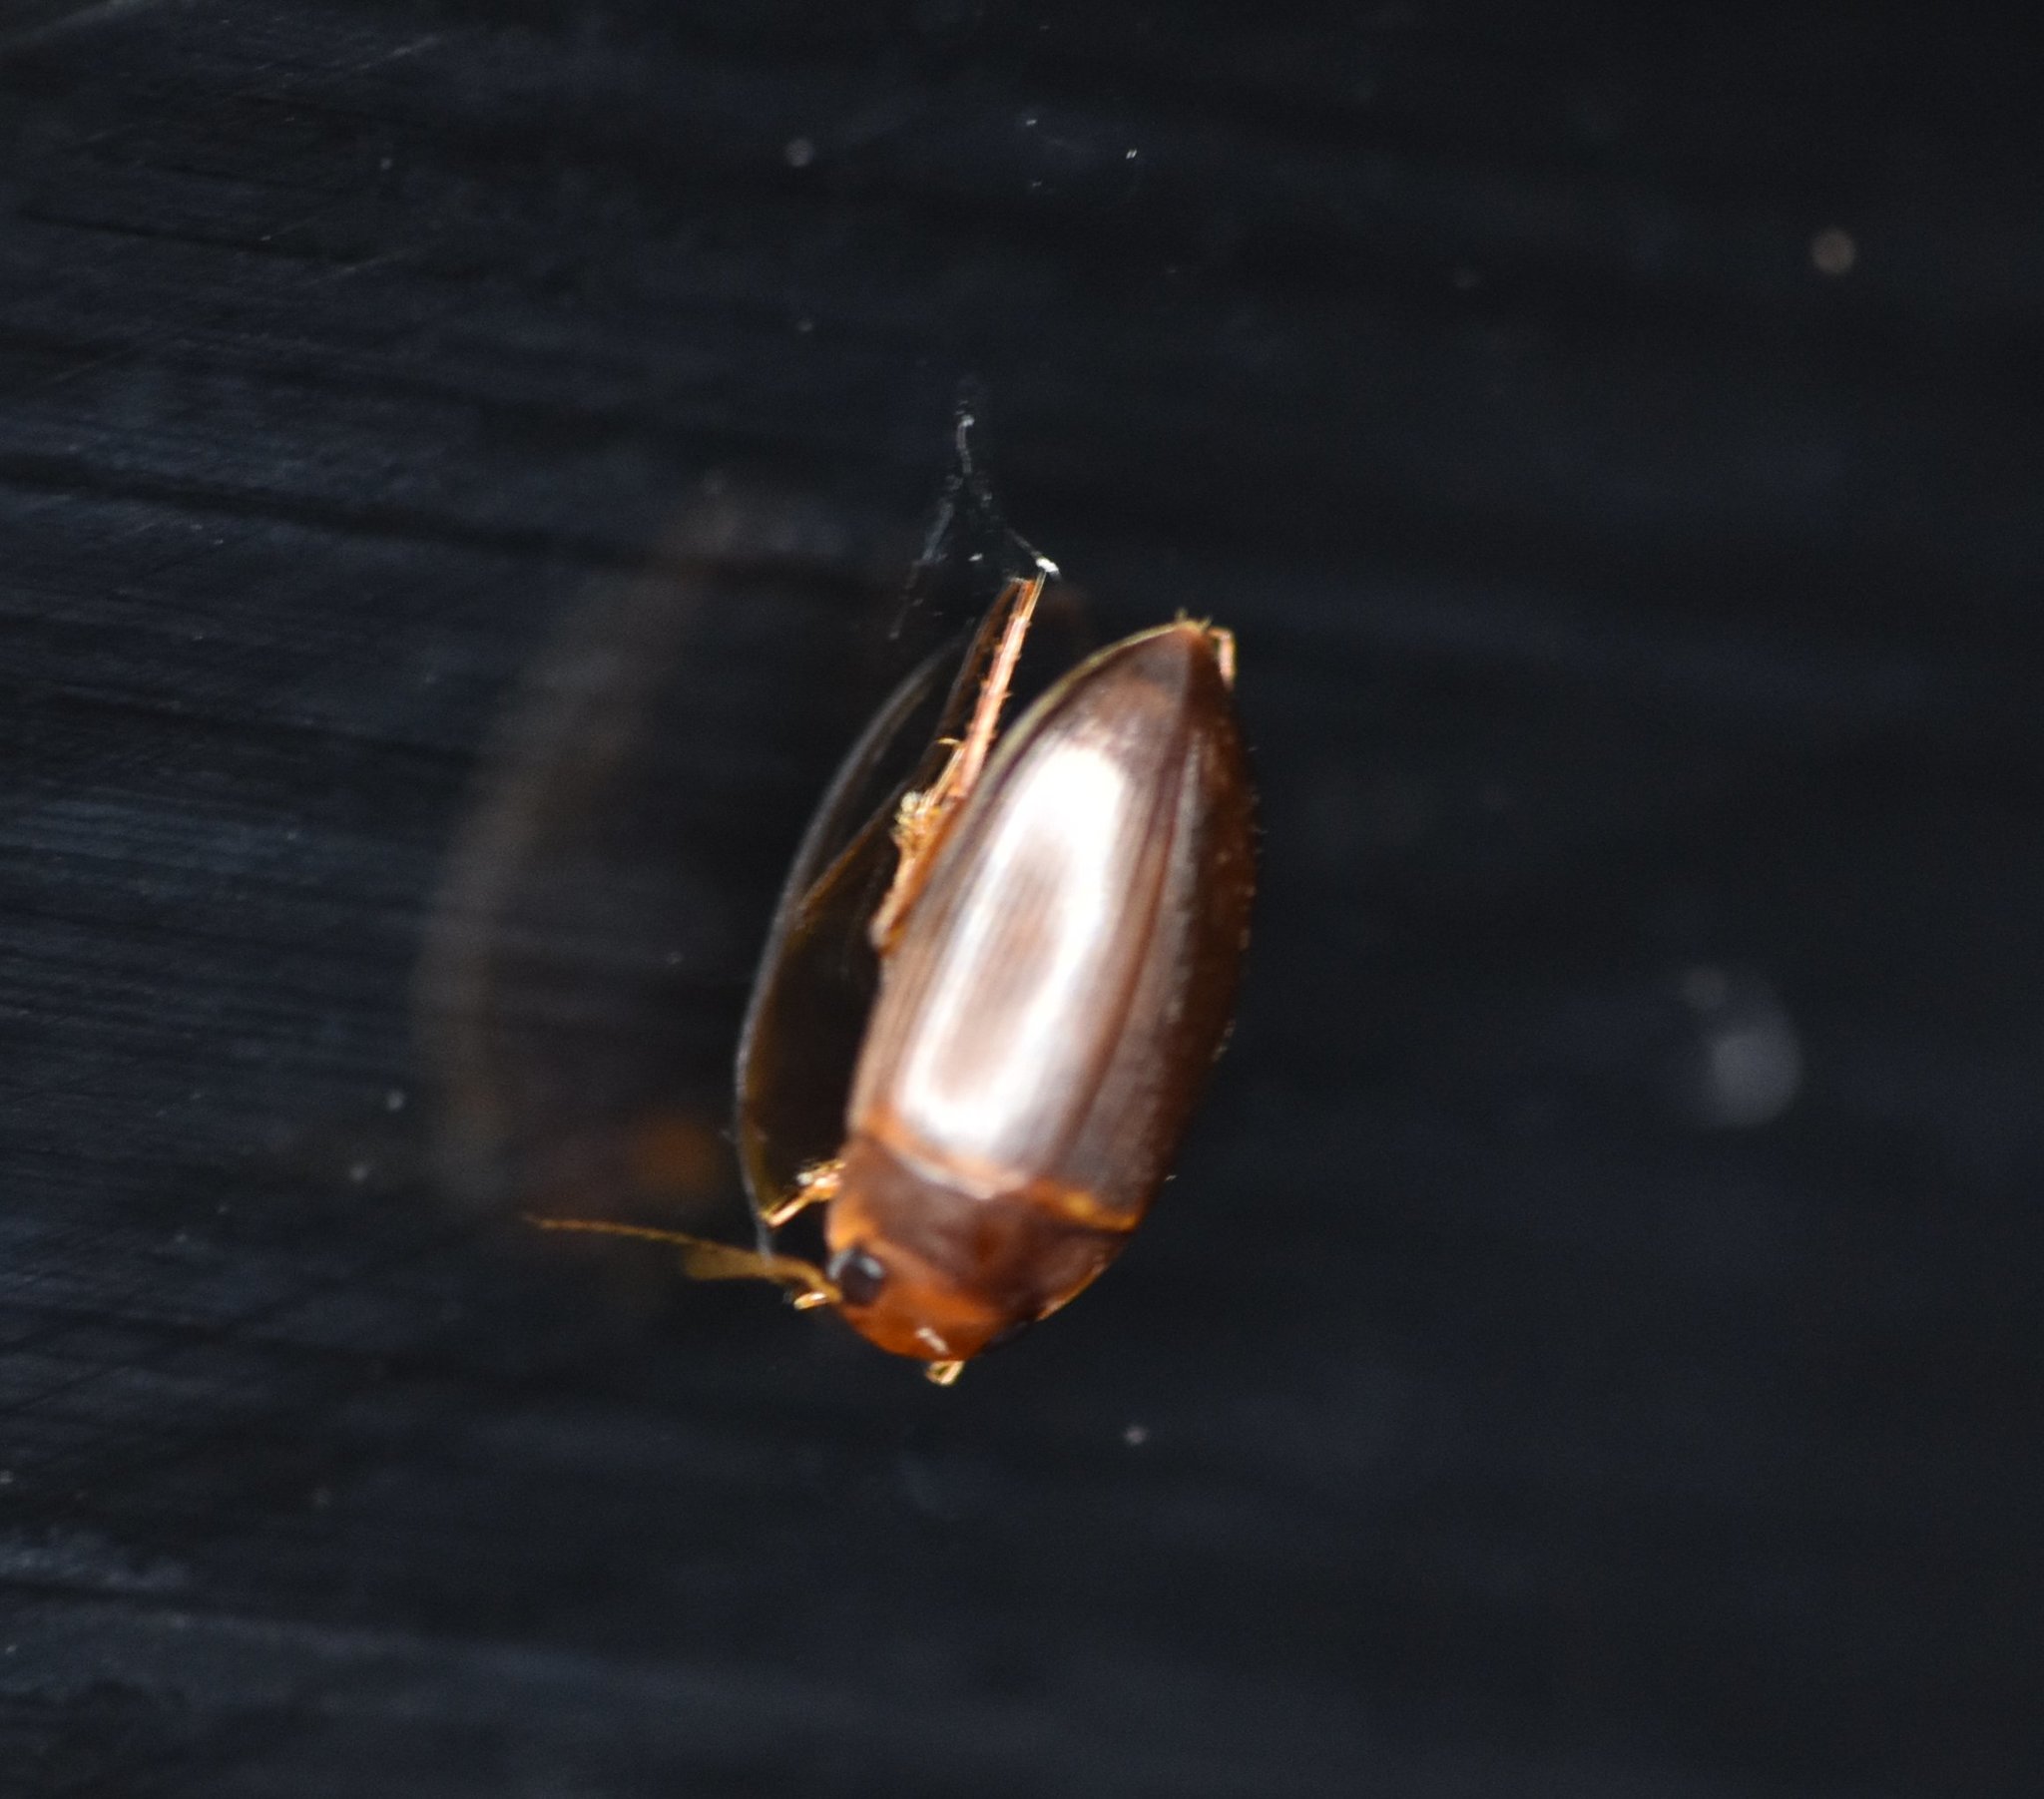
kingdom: Animalia
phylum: Arthropoda
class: Insecta
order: Coleoptera
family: Dytiscidae
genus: Copelatus
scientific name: Copelatus caelatipennis
